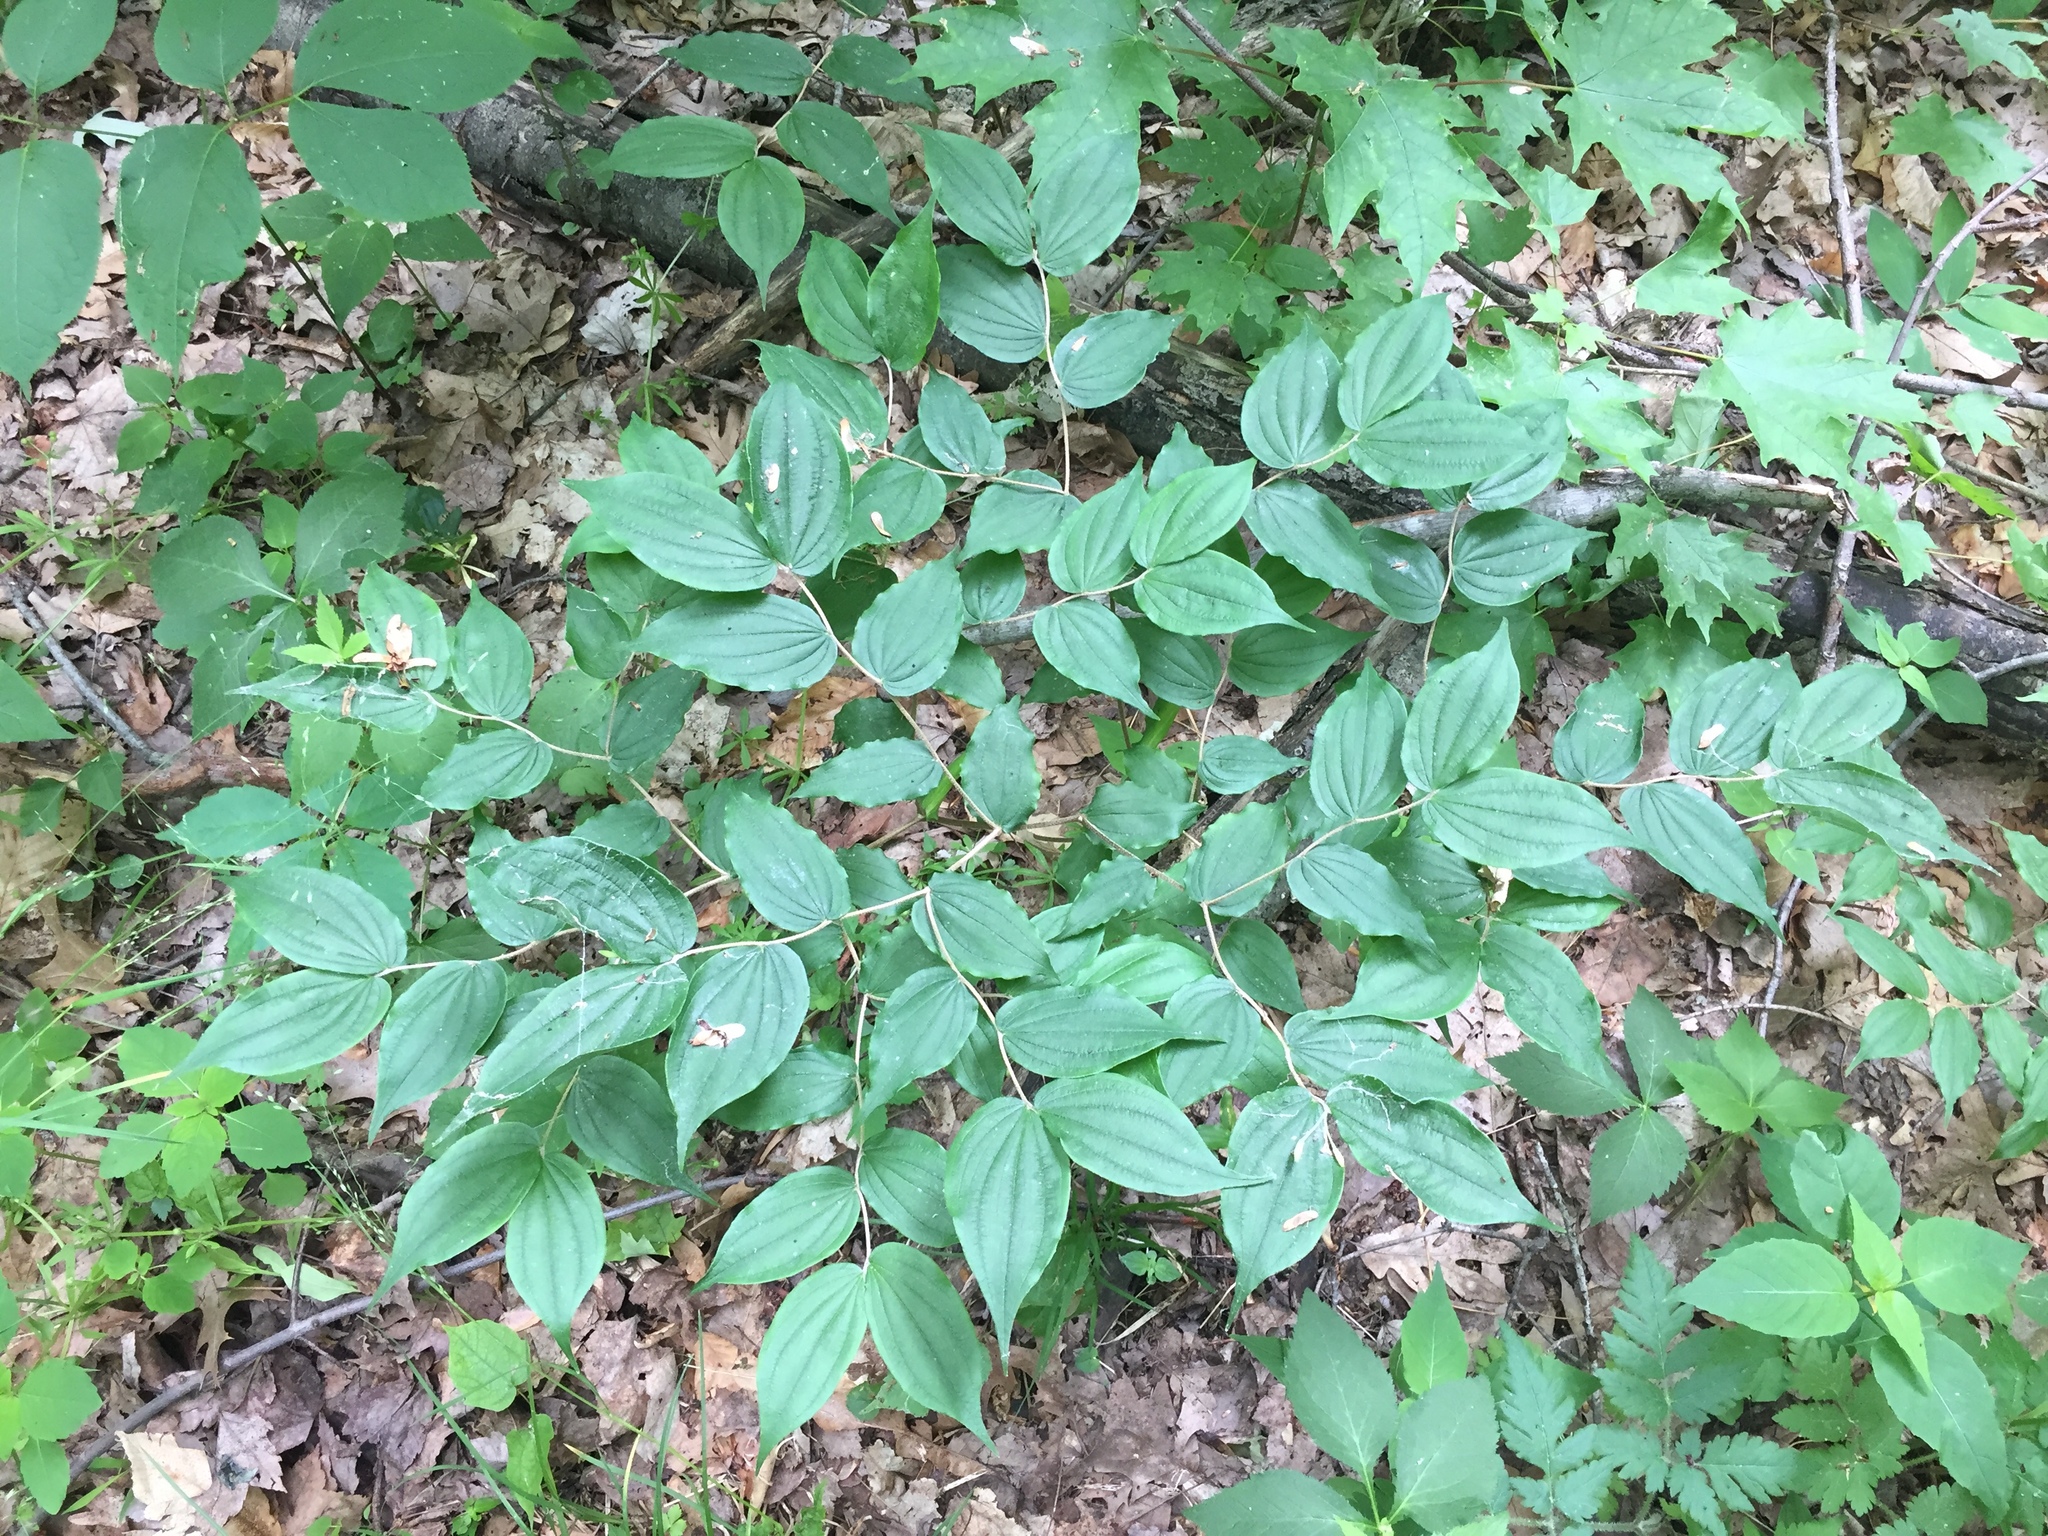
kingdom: Plantae
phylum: Tracheophyta
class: Liliopsida
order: Liliales
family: Liliaceae
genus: Prosartes
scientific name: Prosartes lanuginosa
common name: Hairy mandarin
